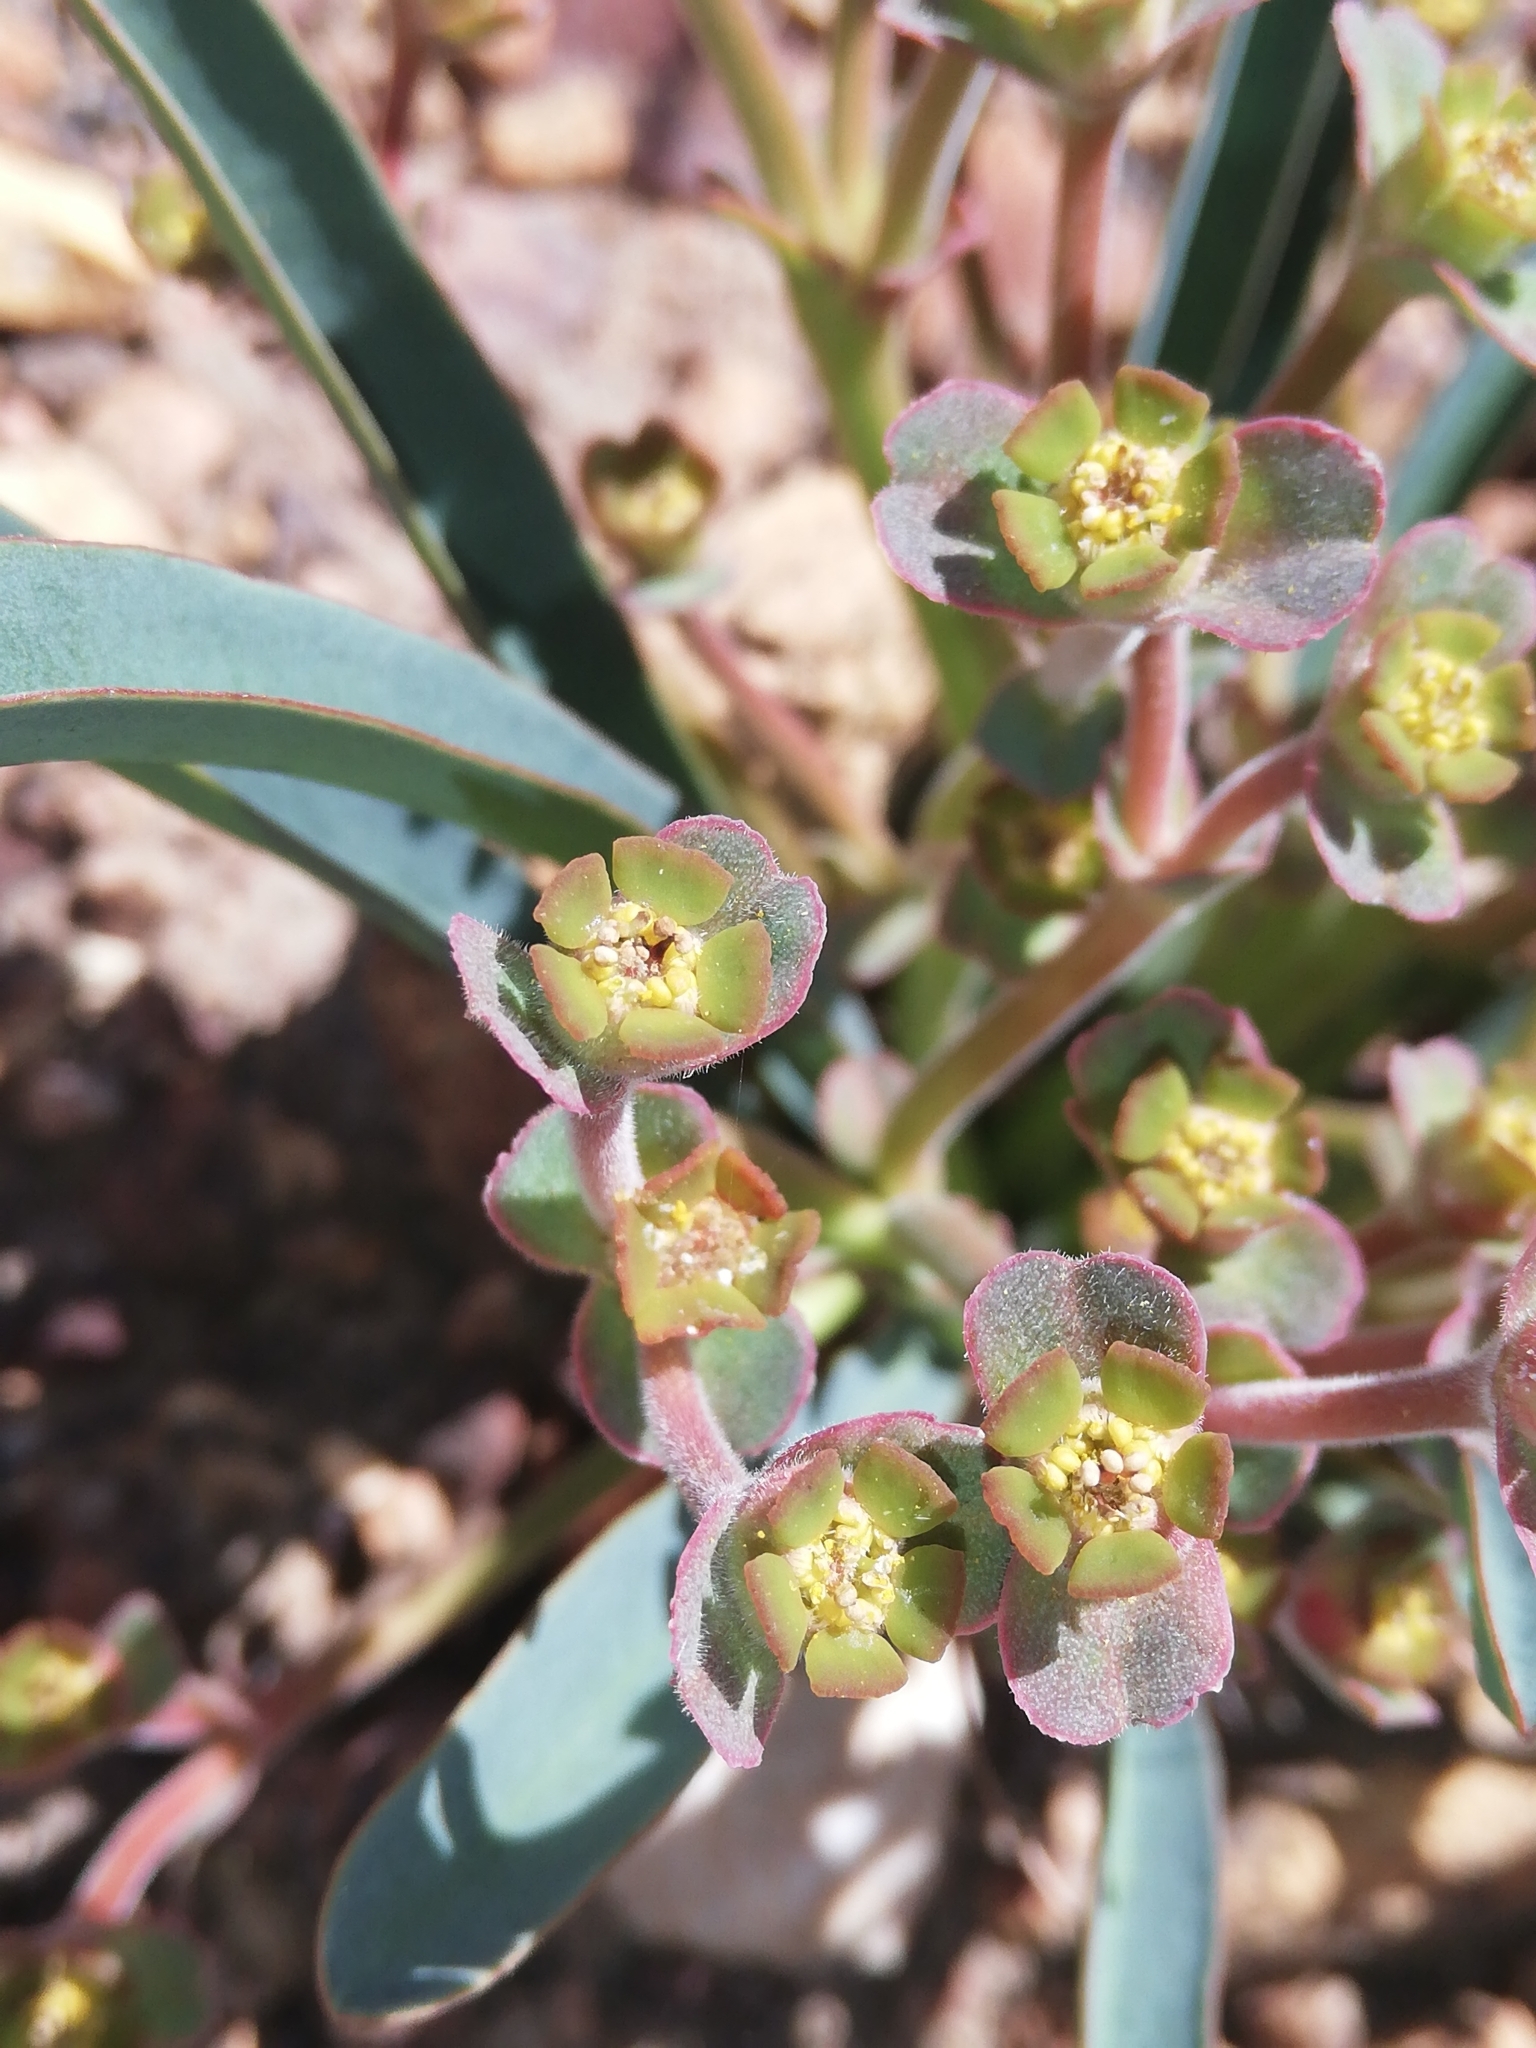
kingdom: Plantae
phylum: Tracheophyta
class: Magnoliopsida
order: Malpighiales
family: Euphorbiaceae
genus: Euphorbia
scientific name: Euphorbia silenifolia
